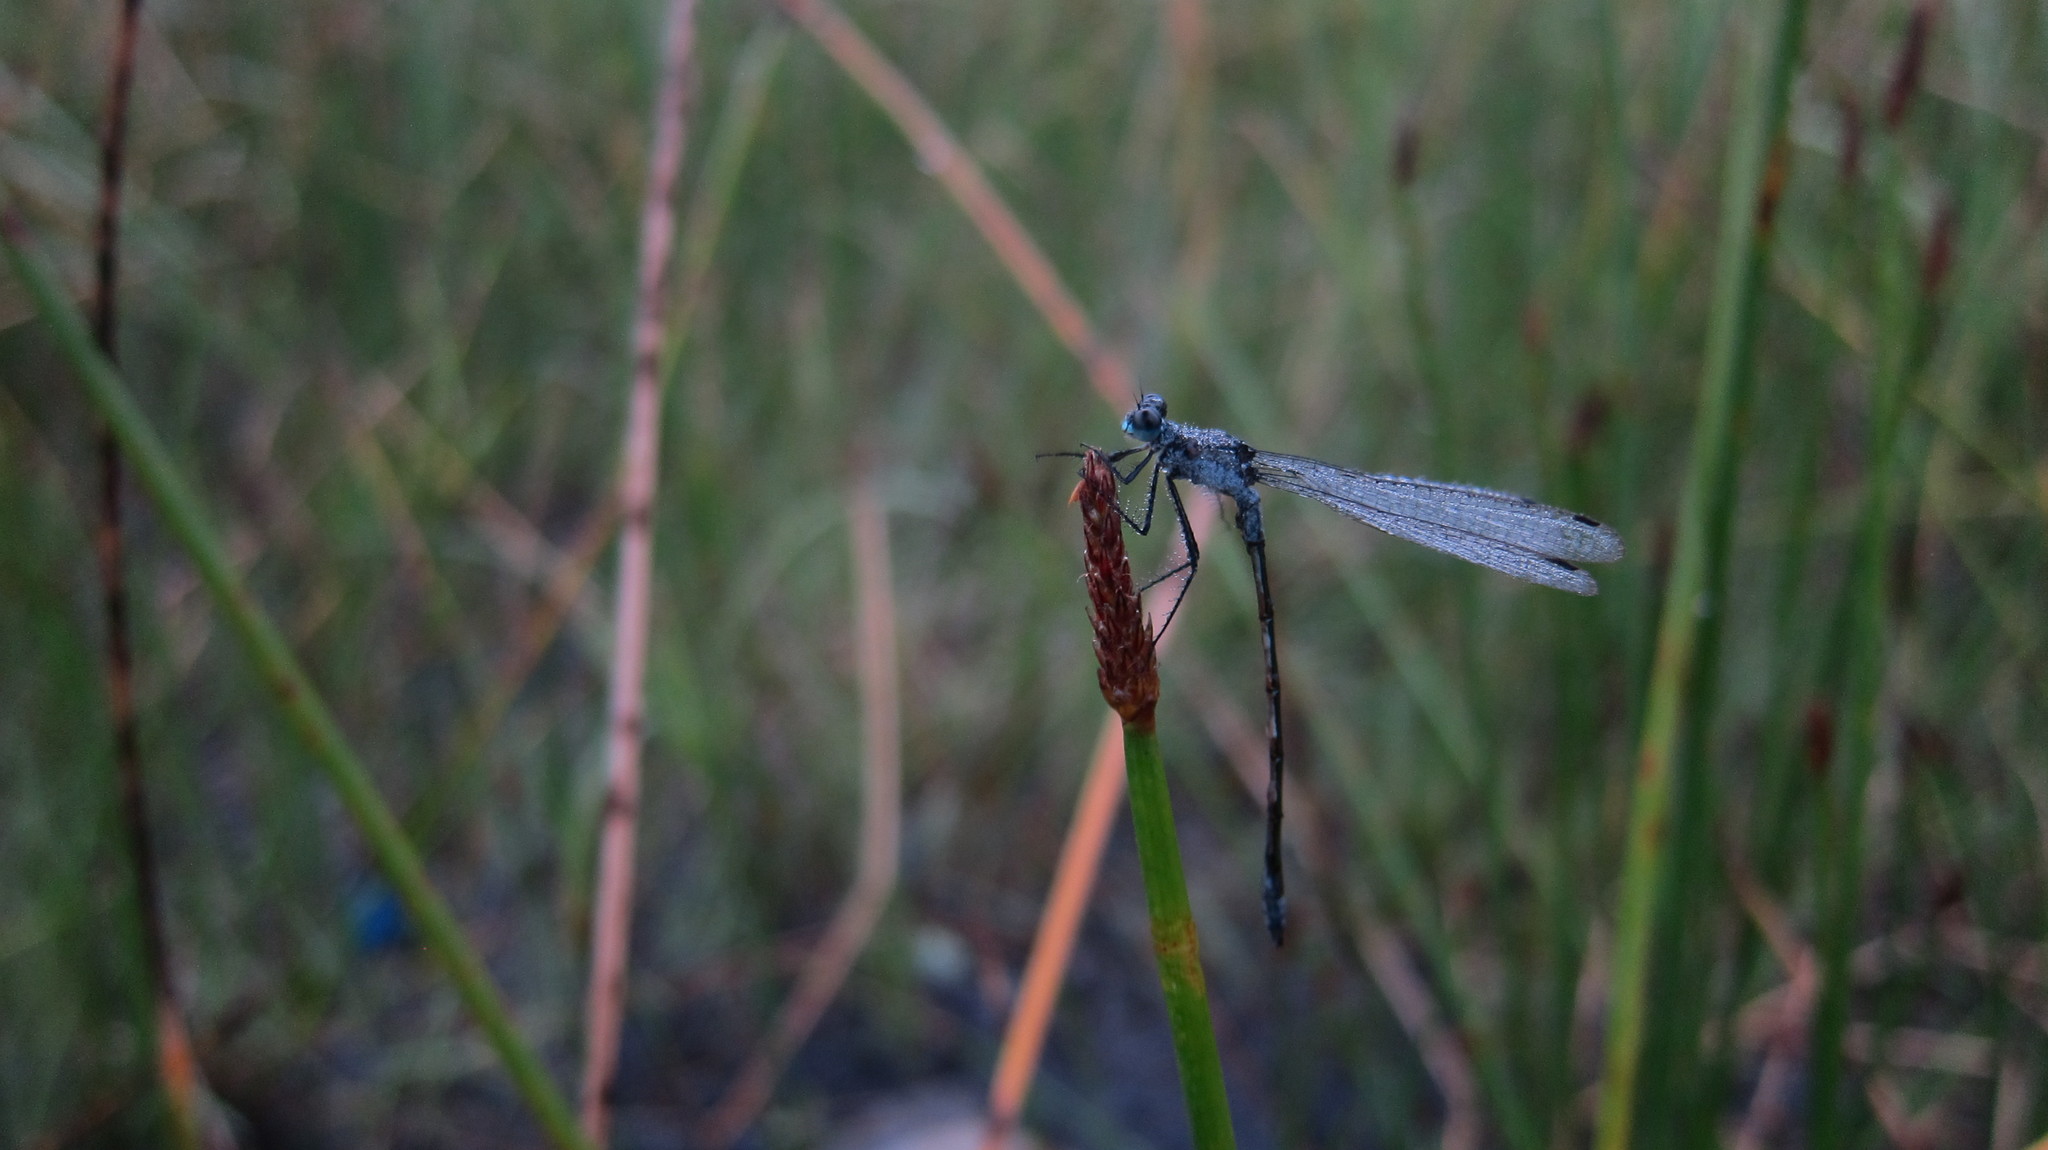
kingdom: Animalia
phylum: Arthropoda
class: Insecta
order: Odonata
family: Lestidae
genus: Lestes
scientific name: Lestes sponsa
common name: Common spreadwing
